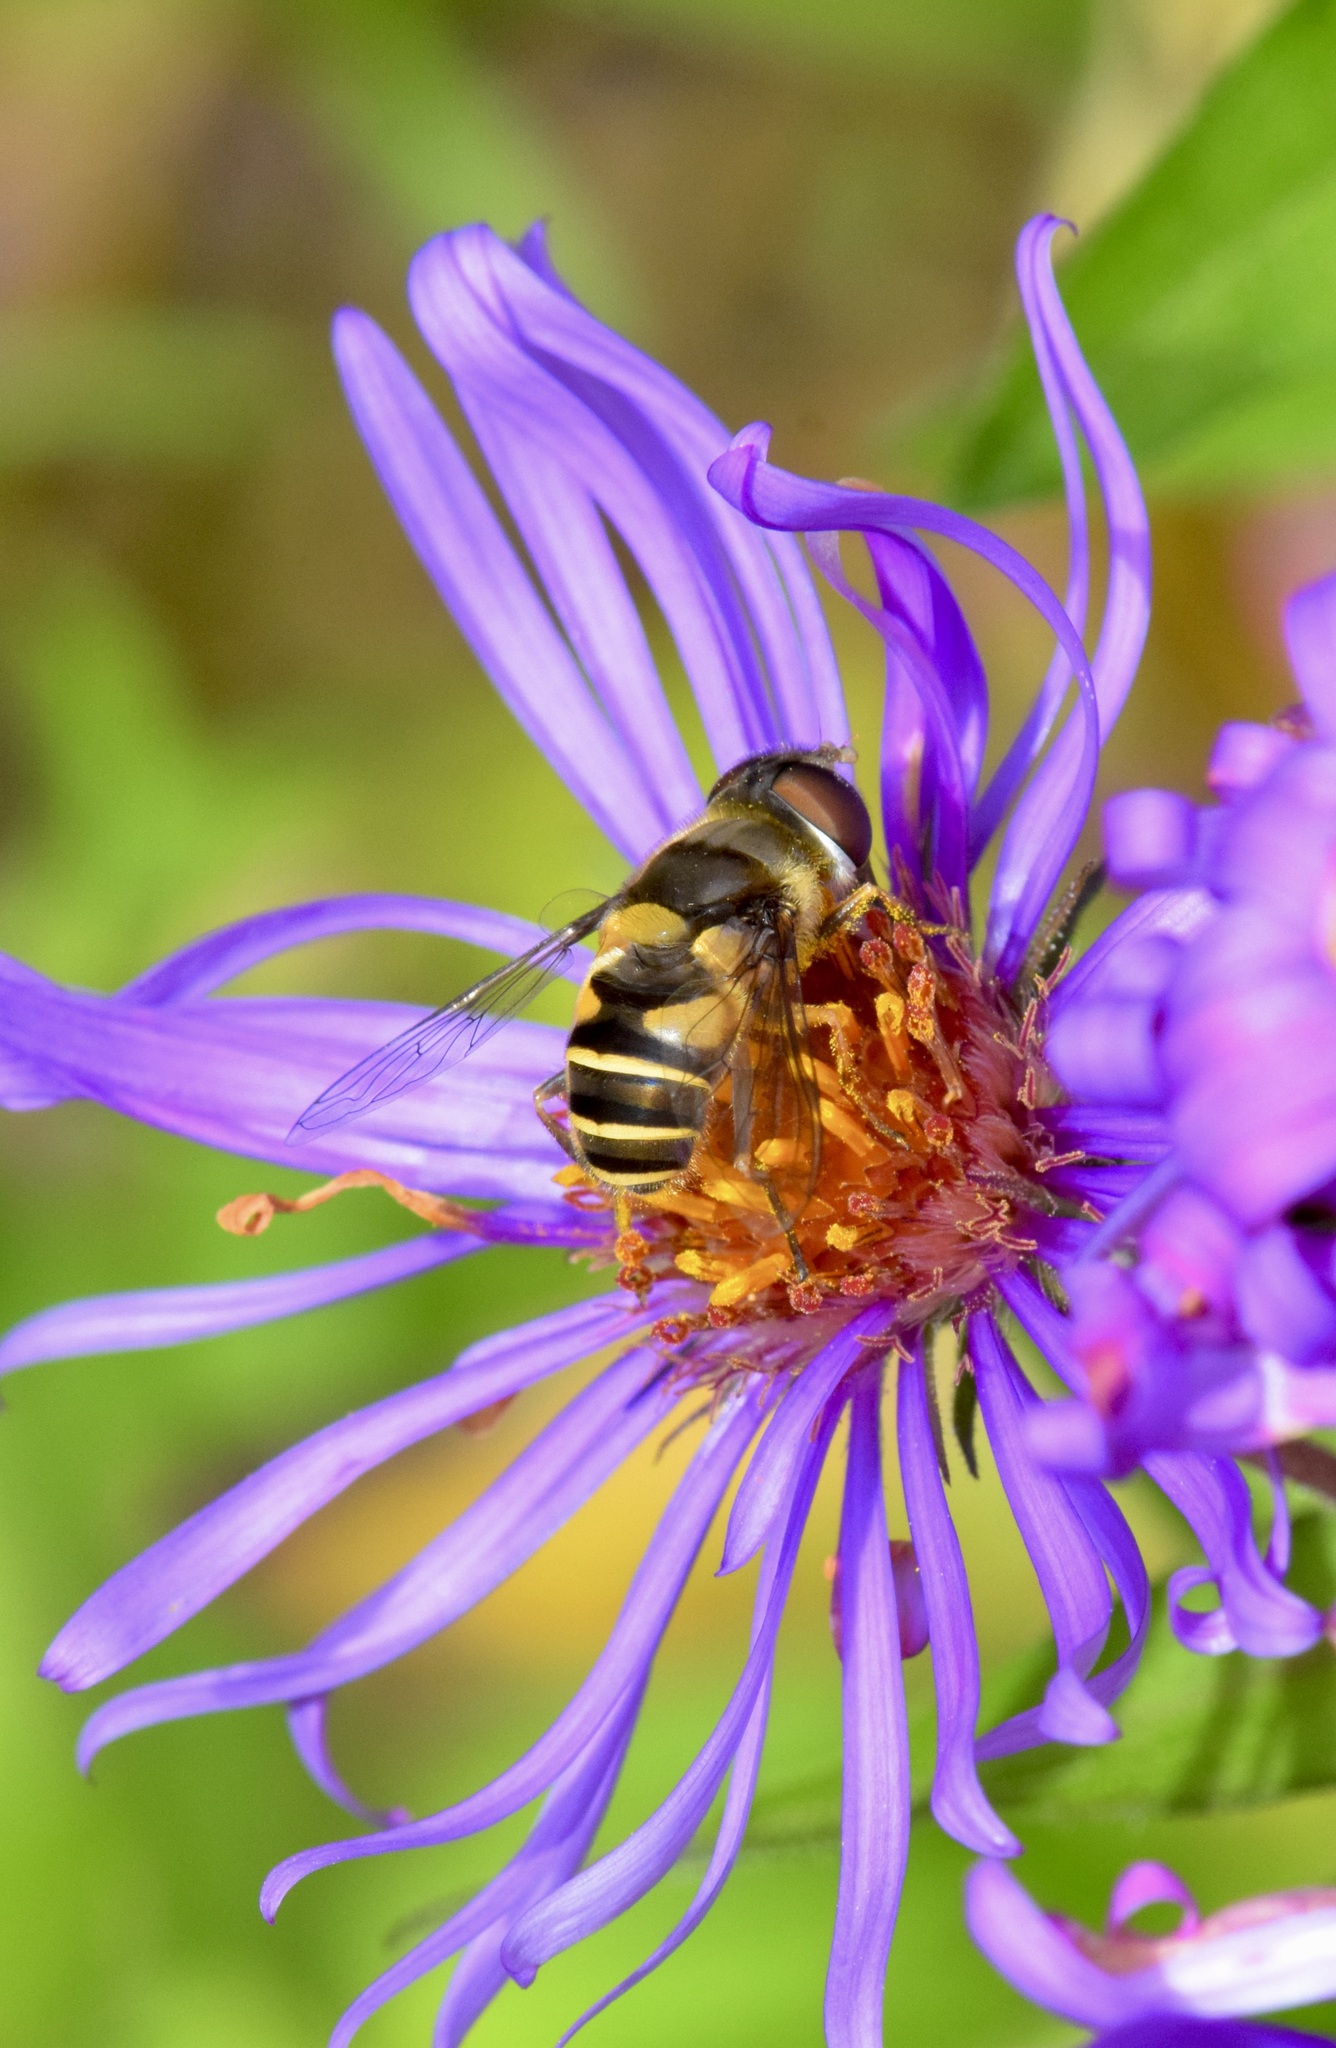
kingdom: Animalia
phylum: Arthropoda
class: Insecta
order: Diptera
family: Syrphidae
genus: Eristalis
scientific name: Eristalis transversa
